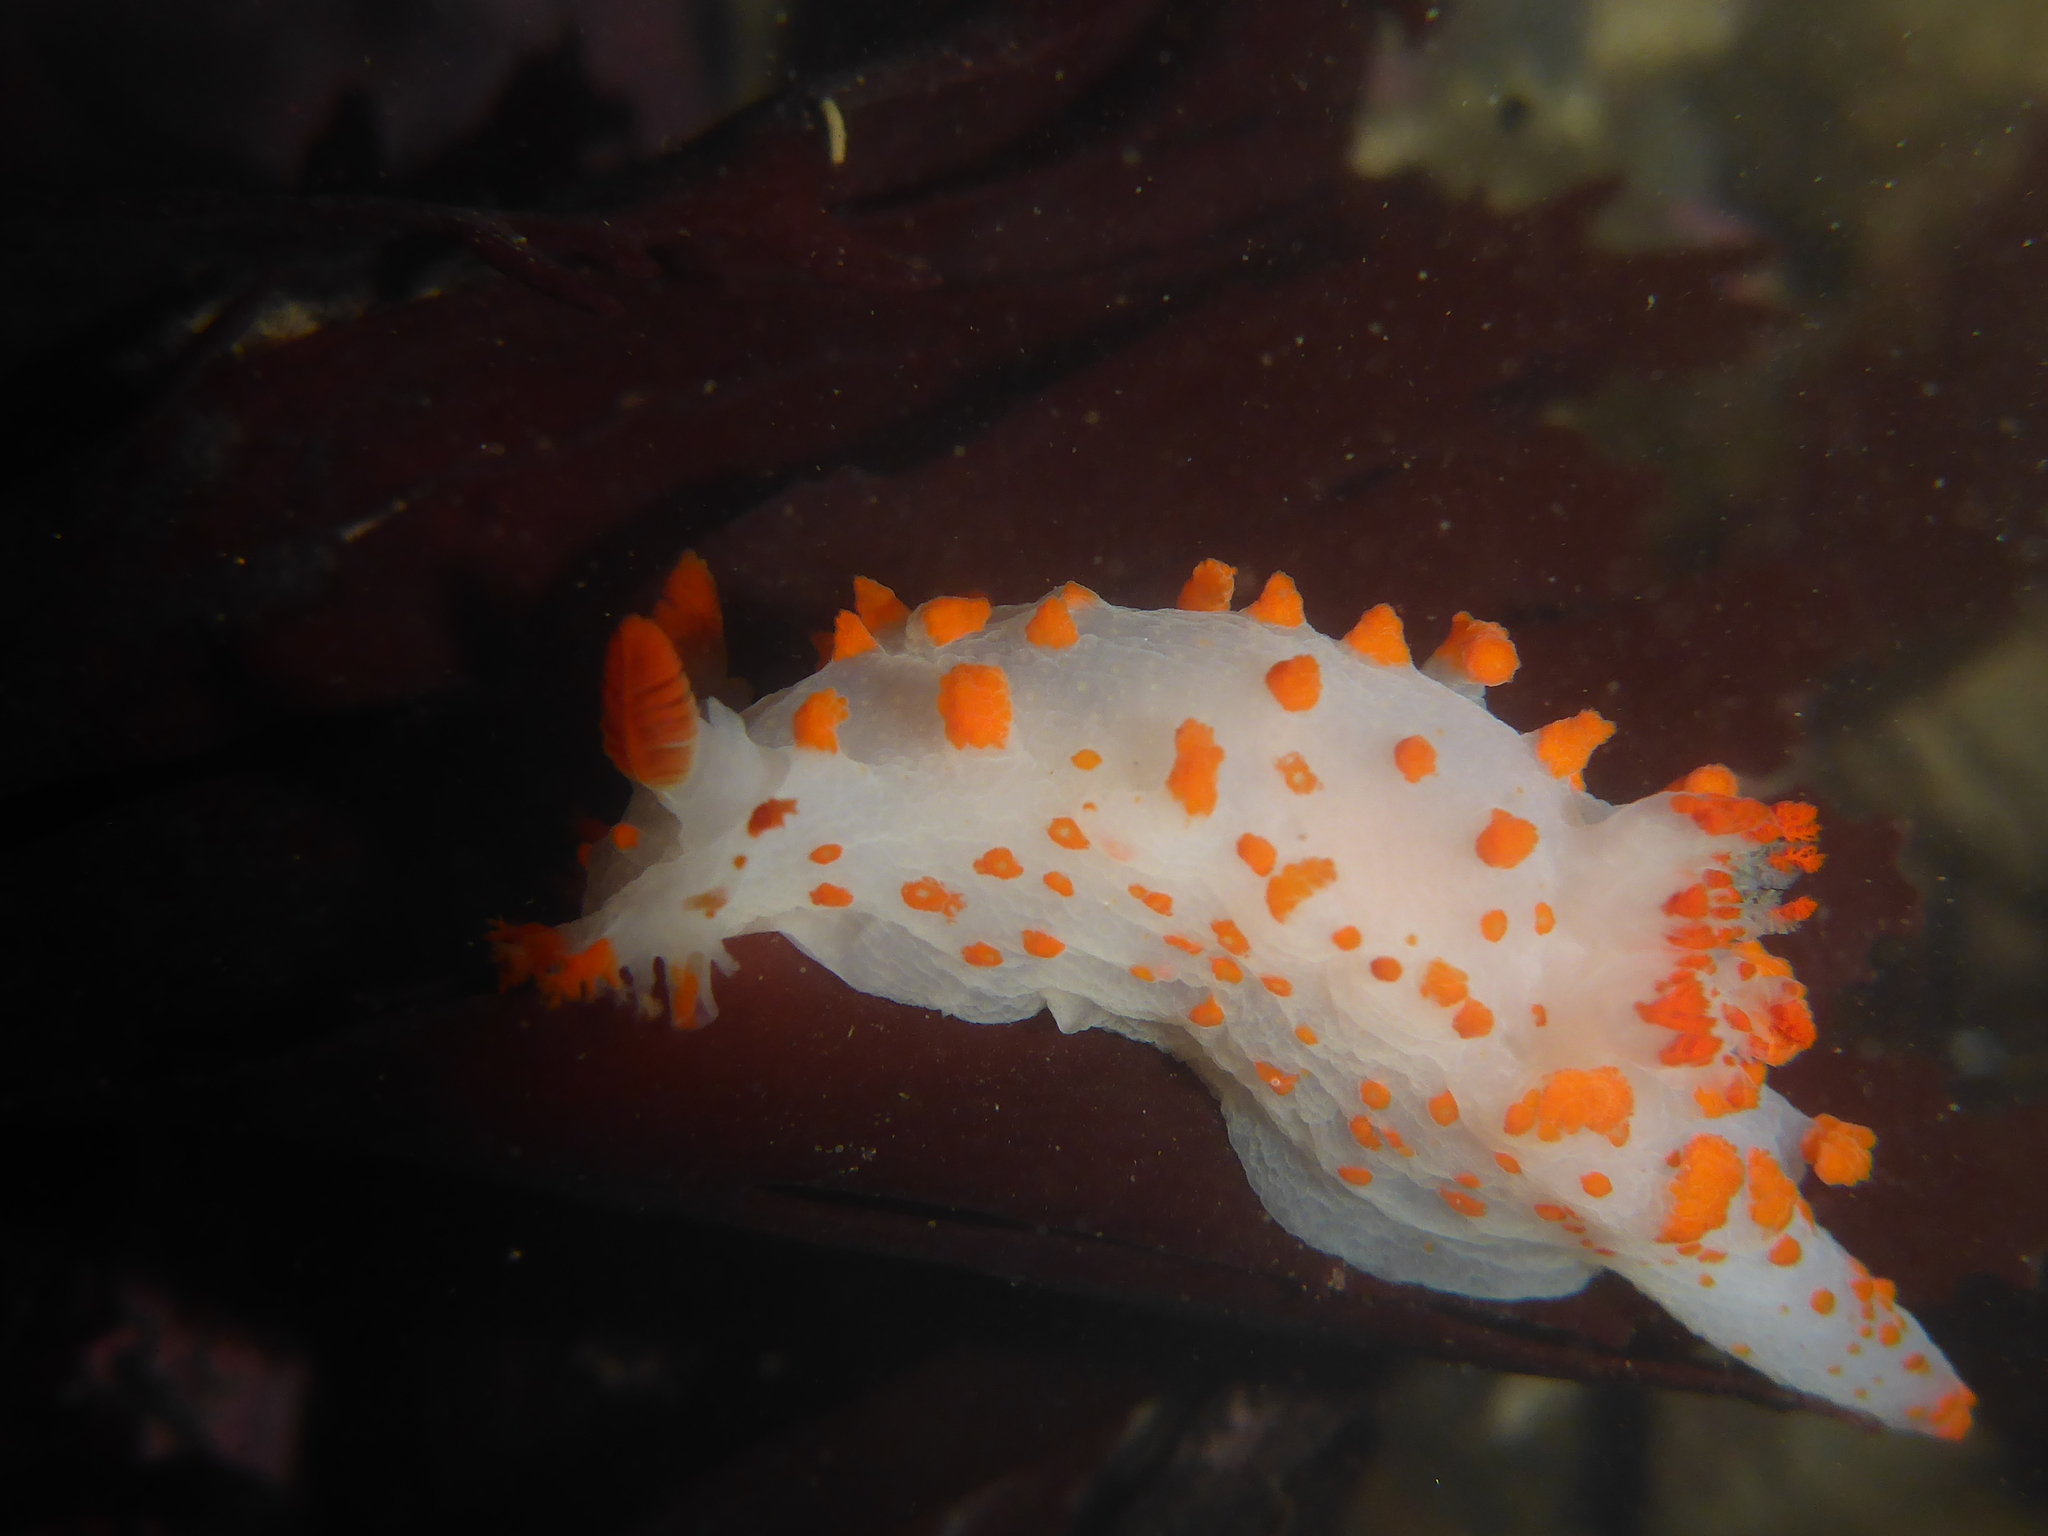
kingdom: Animalia
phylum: Mollusca
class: Gastropoda
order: Nudibranchia
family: Polyceridae
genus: Triopha
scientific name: Triopha catalinae
